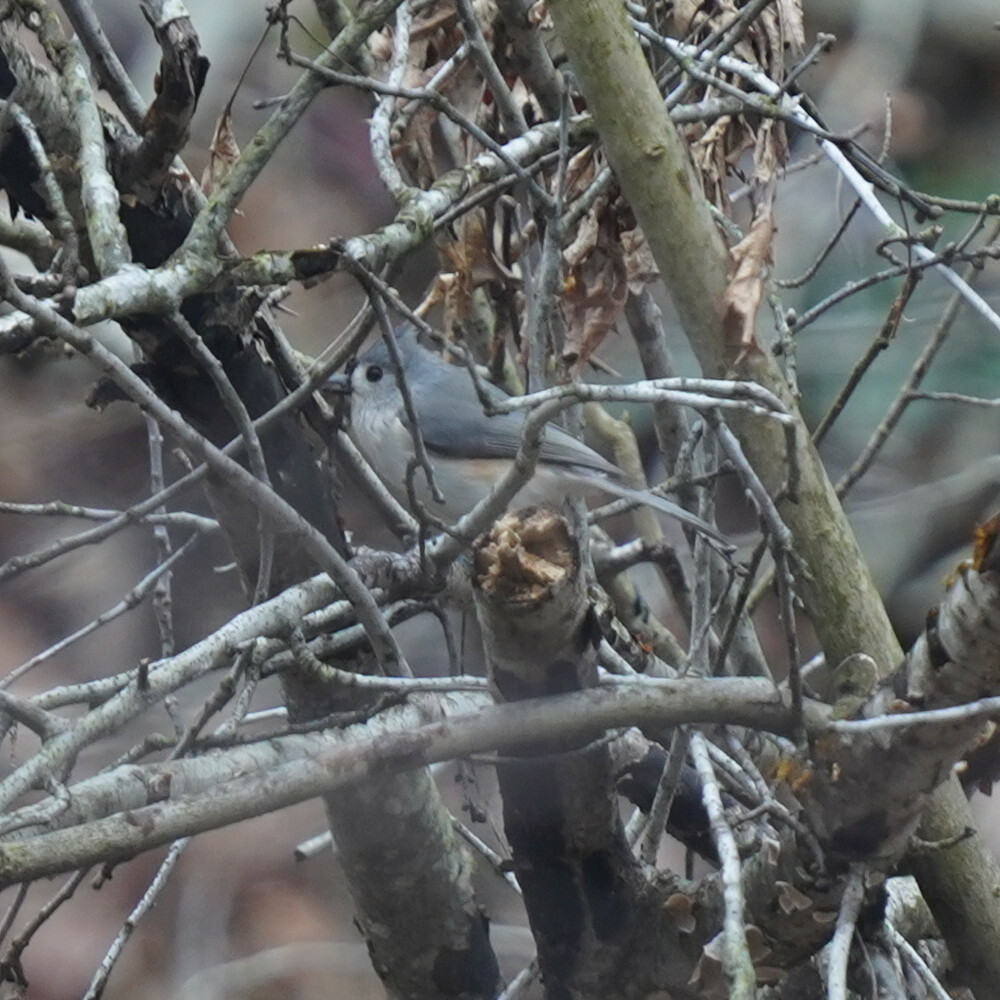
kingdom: Animalia
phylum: Chordata
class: Aves
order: Passeriformes
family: Paridae
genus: Baeolophus
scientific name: Baeolophus bicolor
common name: Tufted titmouse
